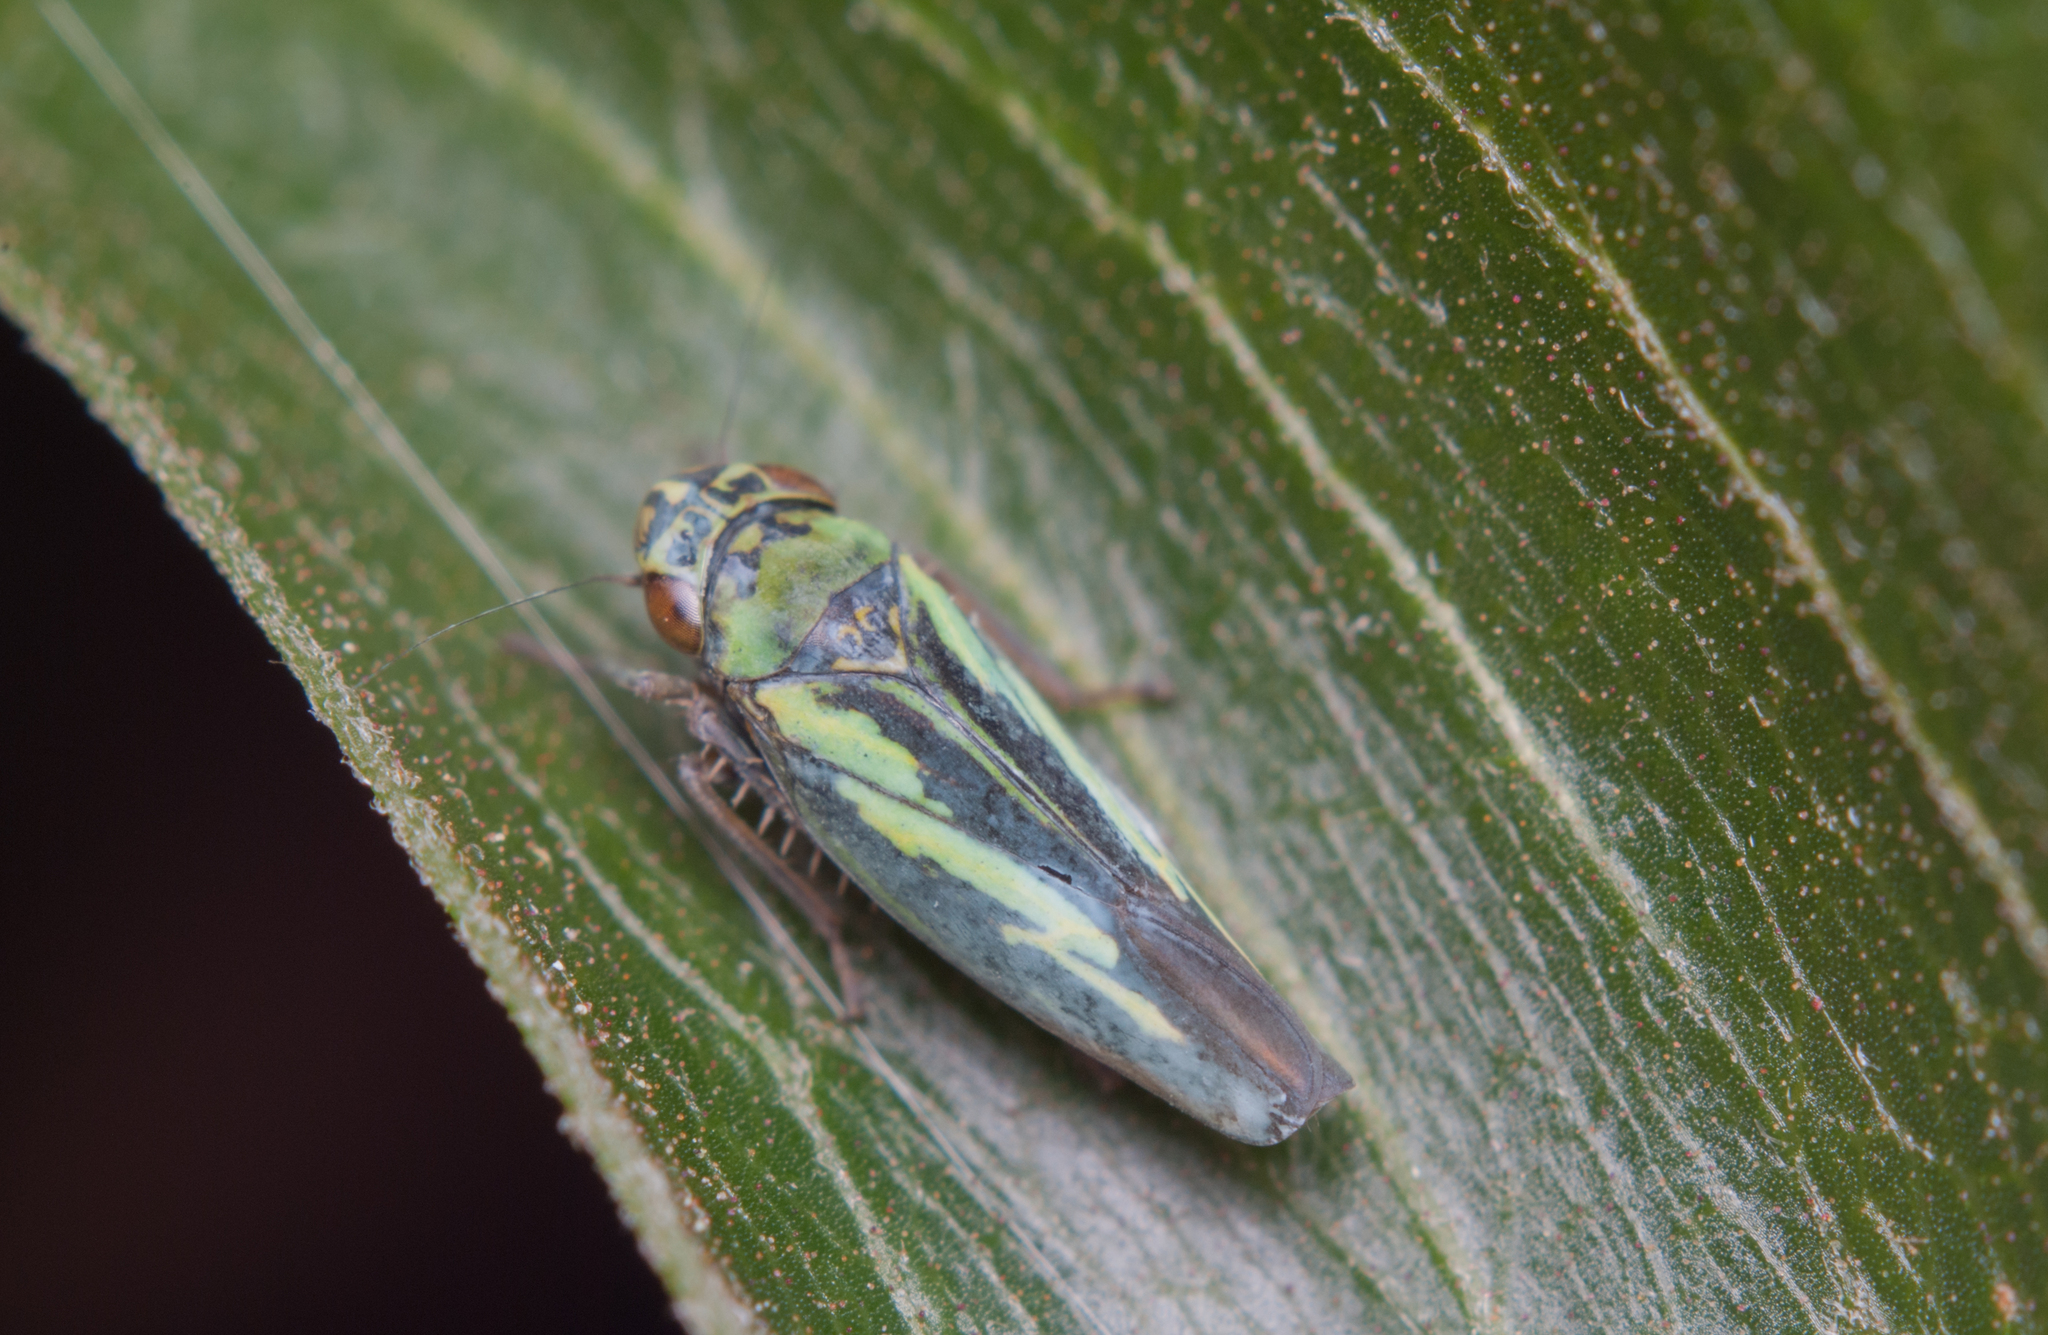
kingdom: Animalia
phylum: Arthropoda
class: Insecta
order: Hemiptera
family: Cicadellidae
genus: Borogonalia
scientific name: Borogonalia impressifrons
